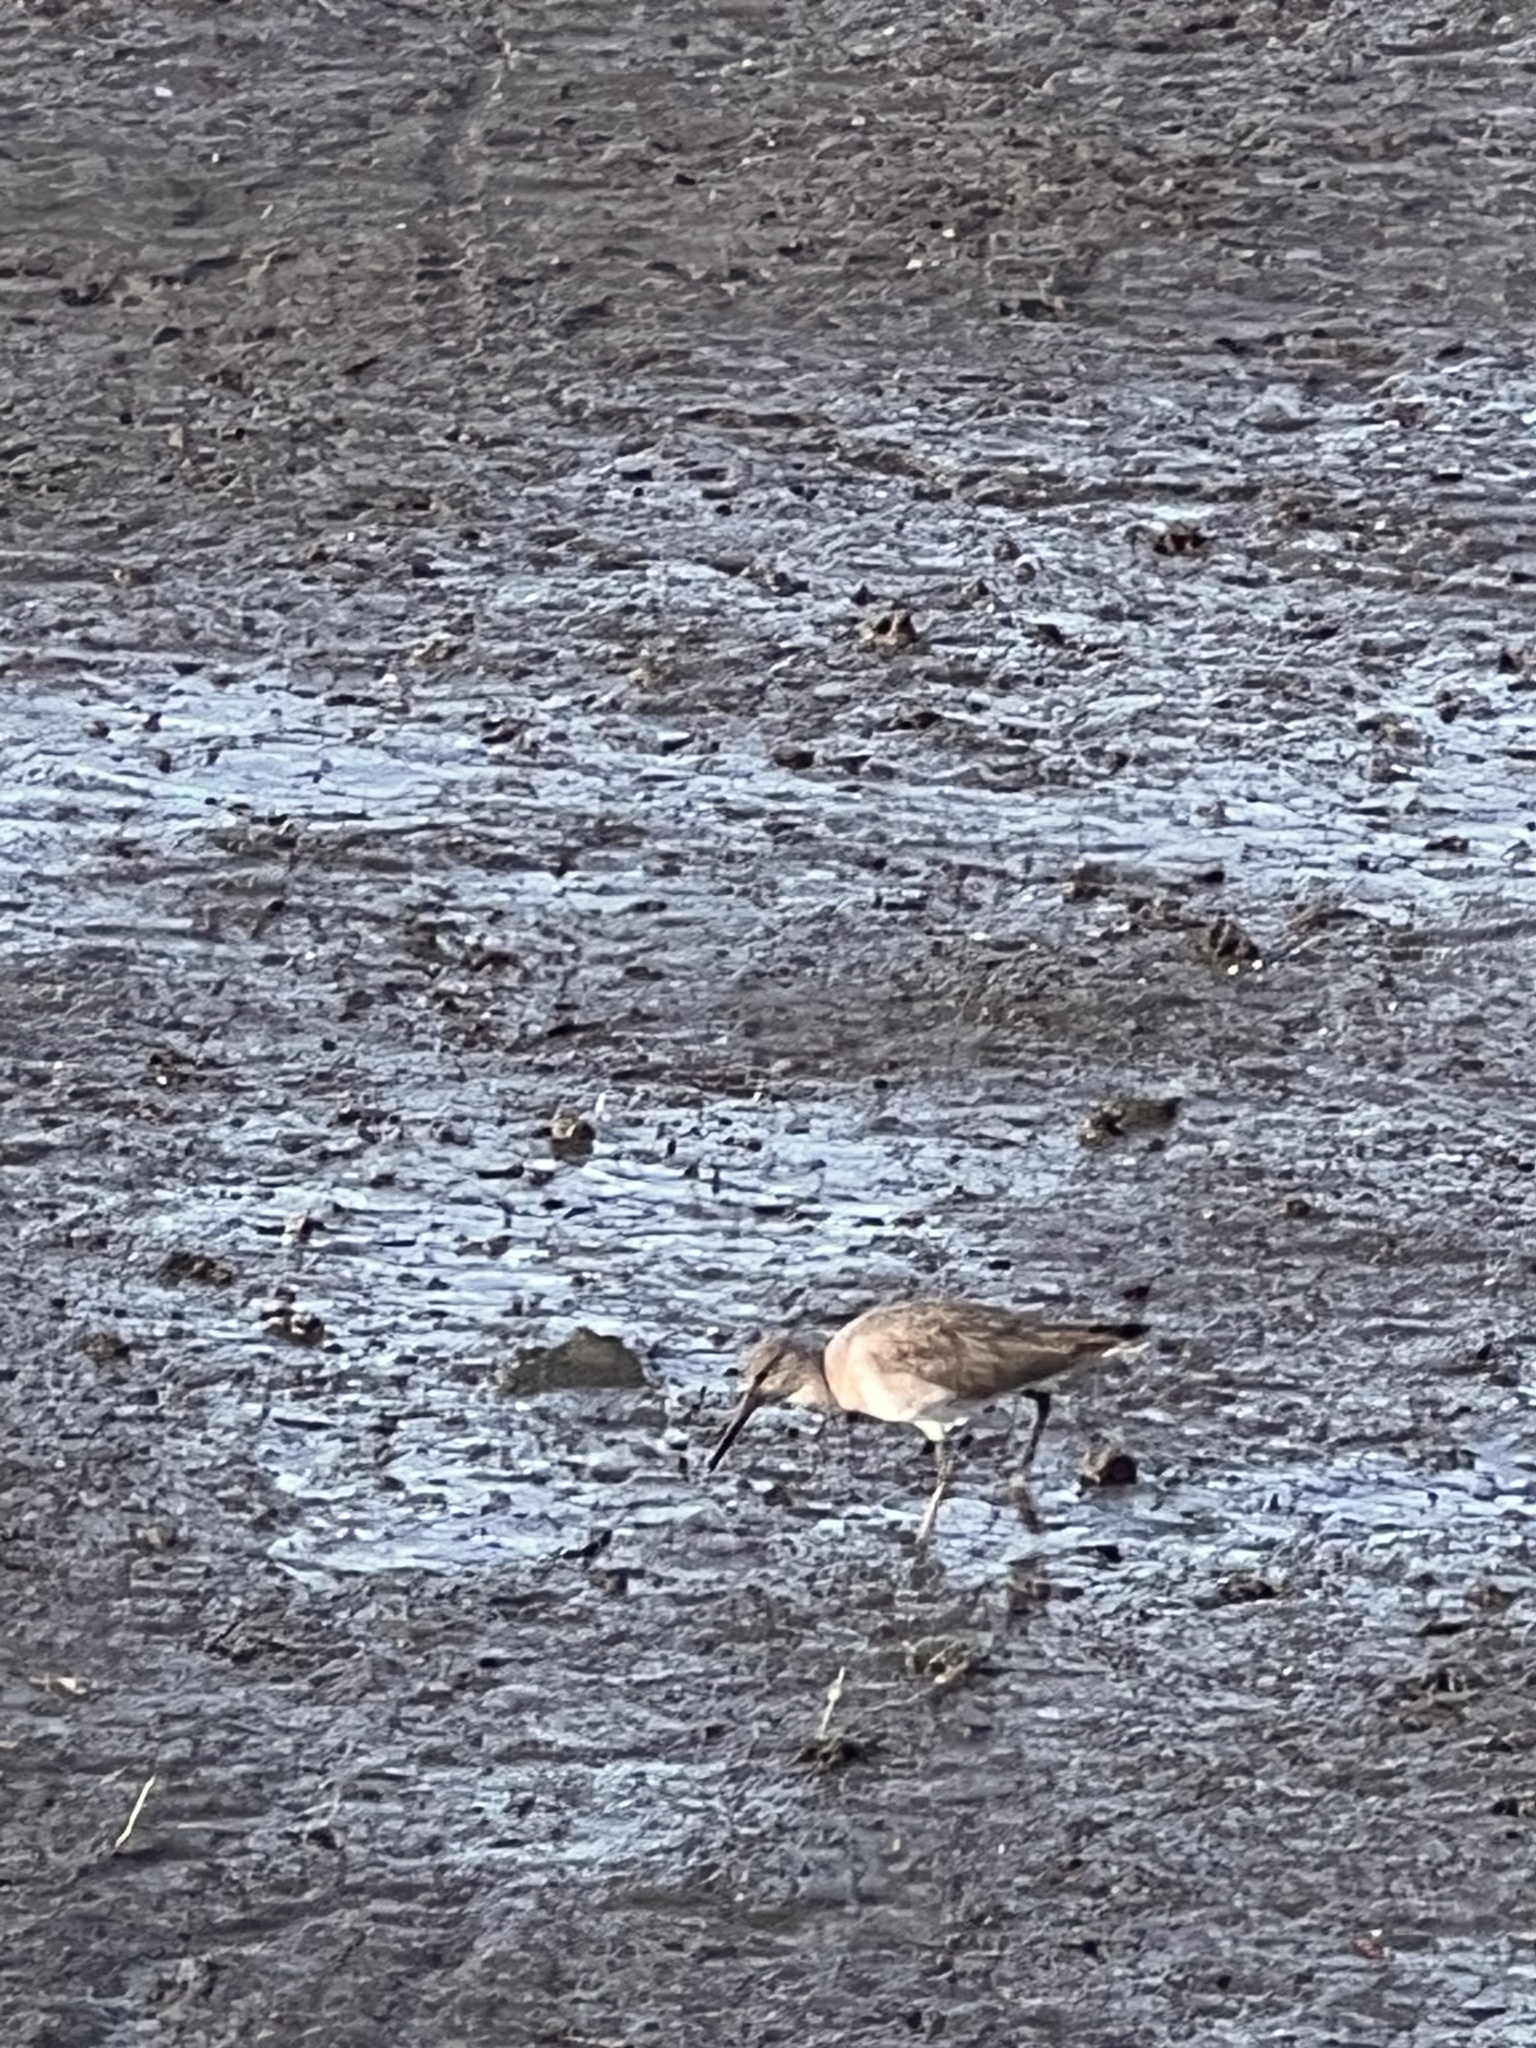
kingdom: Animalia
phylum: Chordata
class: Aves
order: Charadriiformes
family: Scolopacidae
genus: Tringa
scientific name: Tringa semipalmata
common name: Willet
